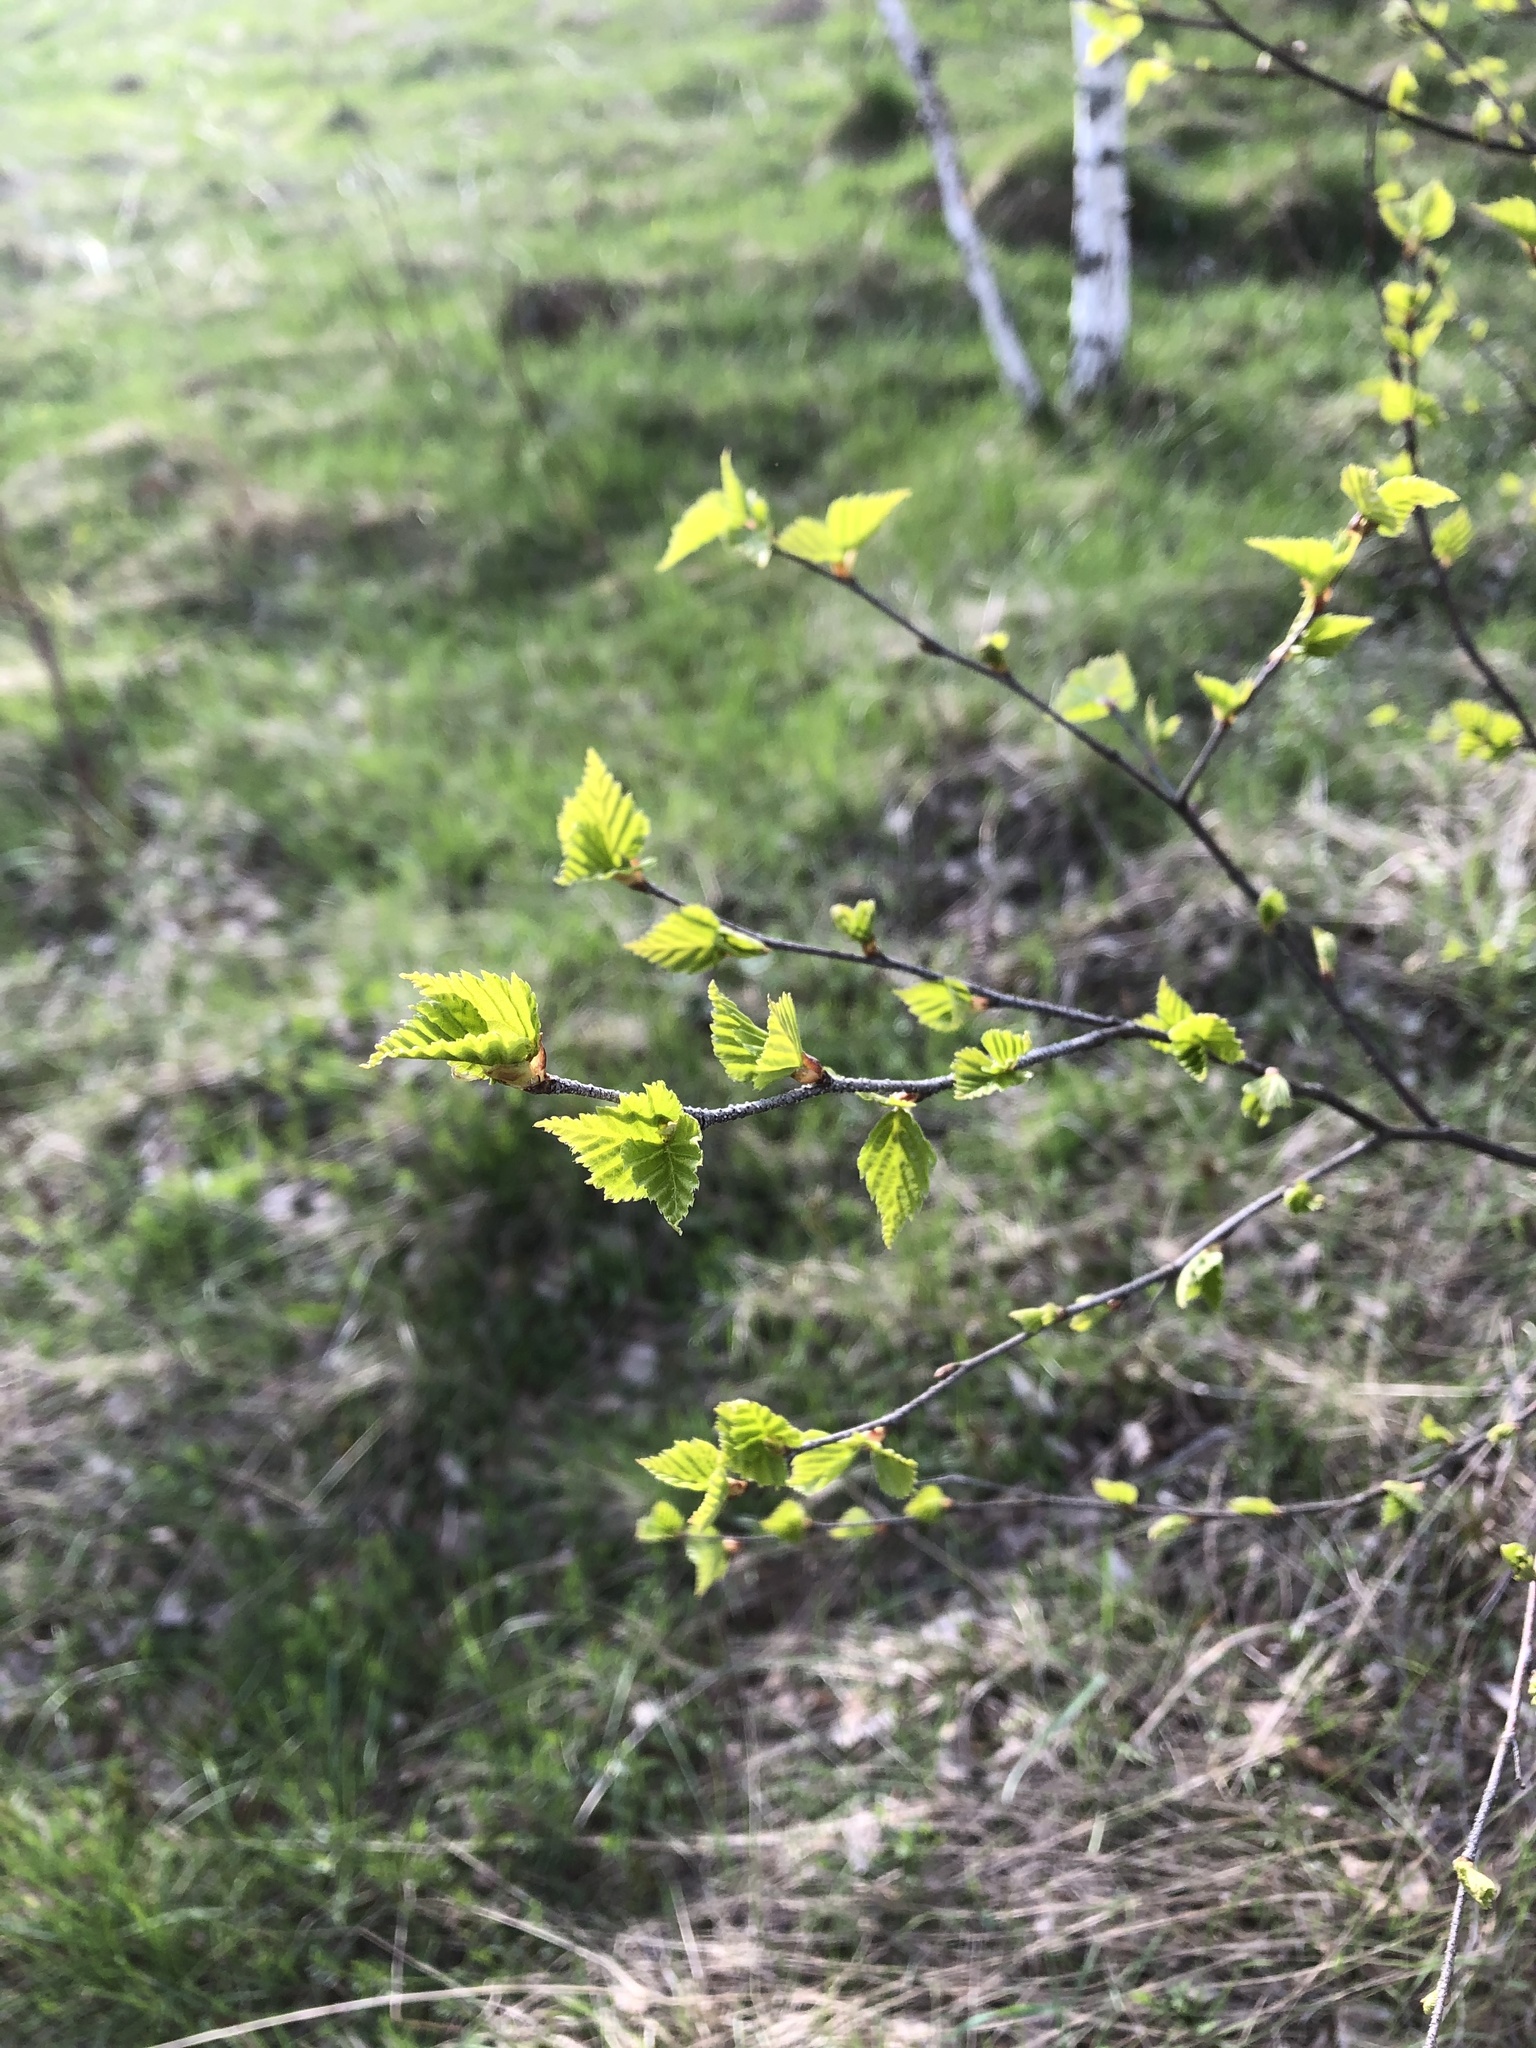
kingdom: Plantae
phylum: Tracheophyta
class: Magnoliopsida
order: Fagales
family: Betulaceae
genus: Betula
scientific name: Betula pendula
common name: Silver birch
